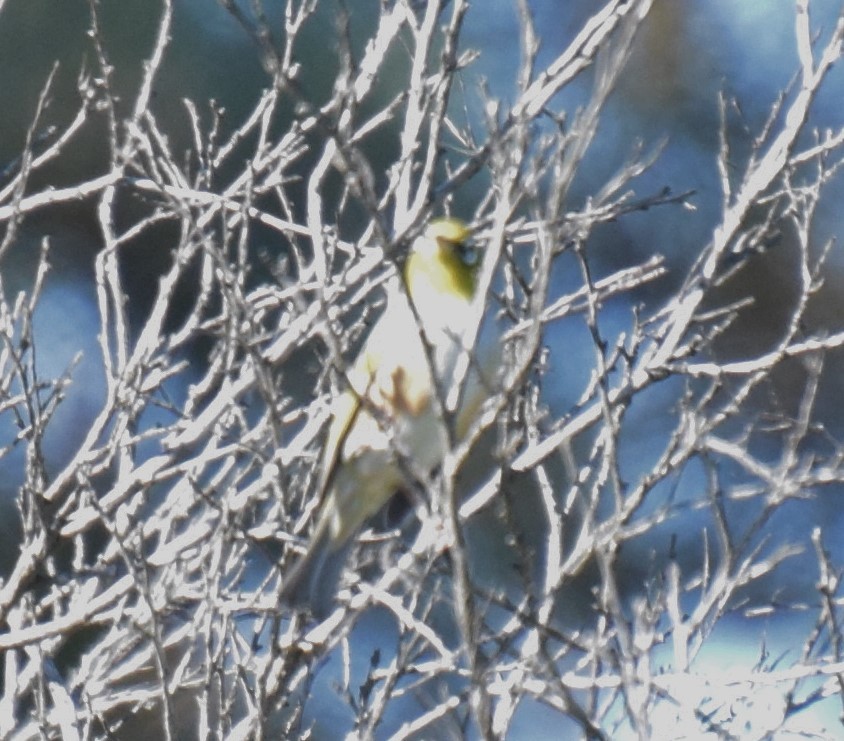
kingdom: Animalia
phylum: Chordata
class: Aves
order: Passeriformes
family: Zosteropidae
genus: Zosterops
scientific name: Zosterops lateralis
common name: Silvereye
